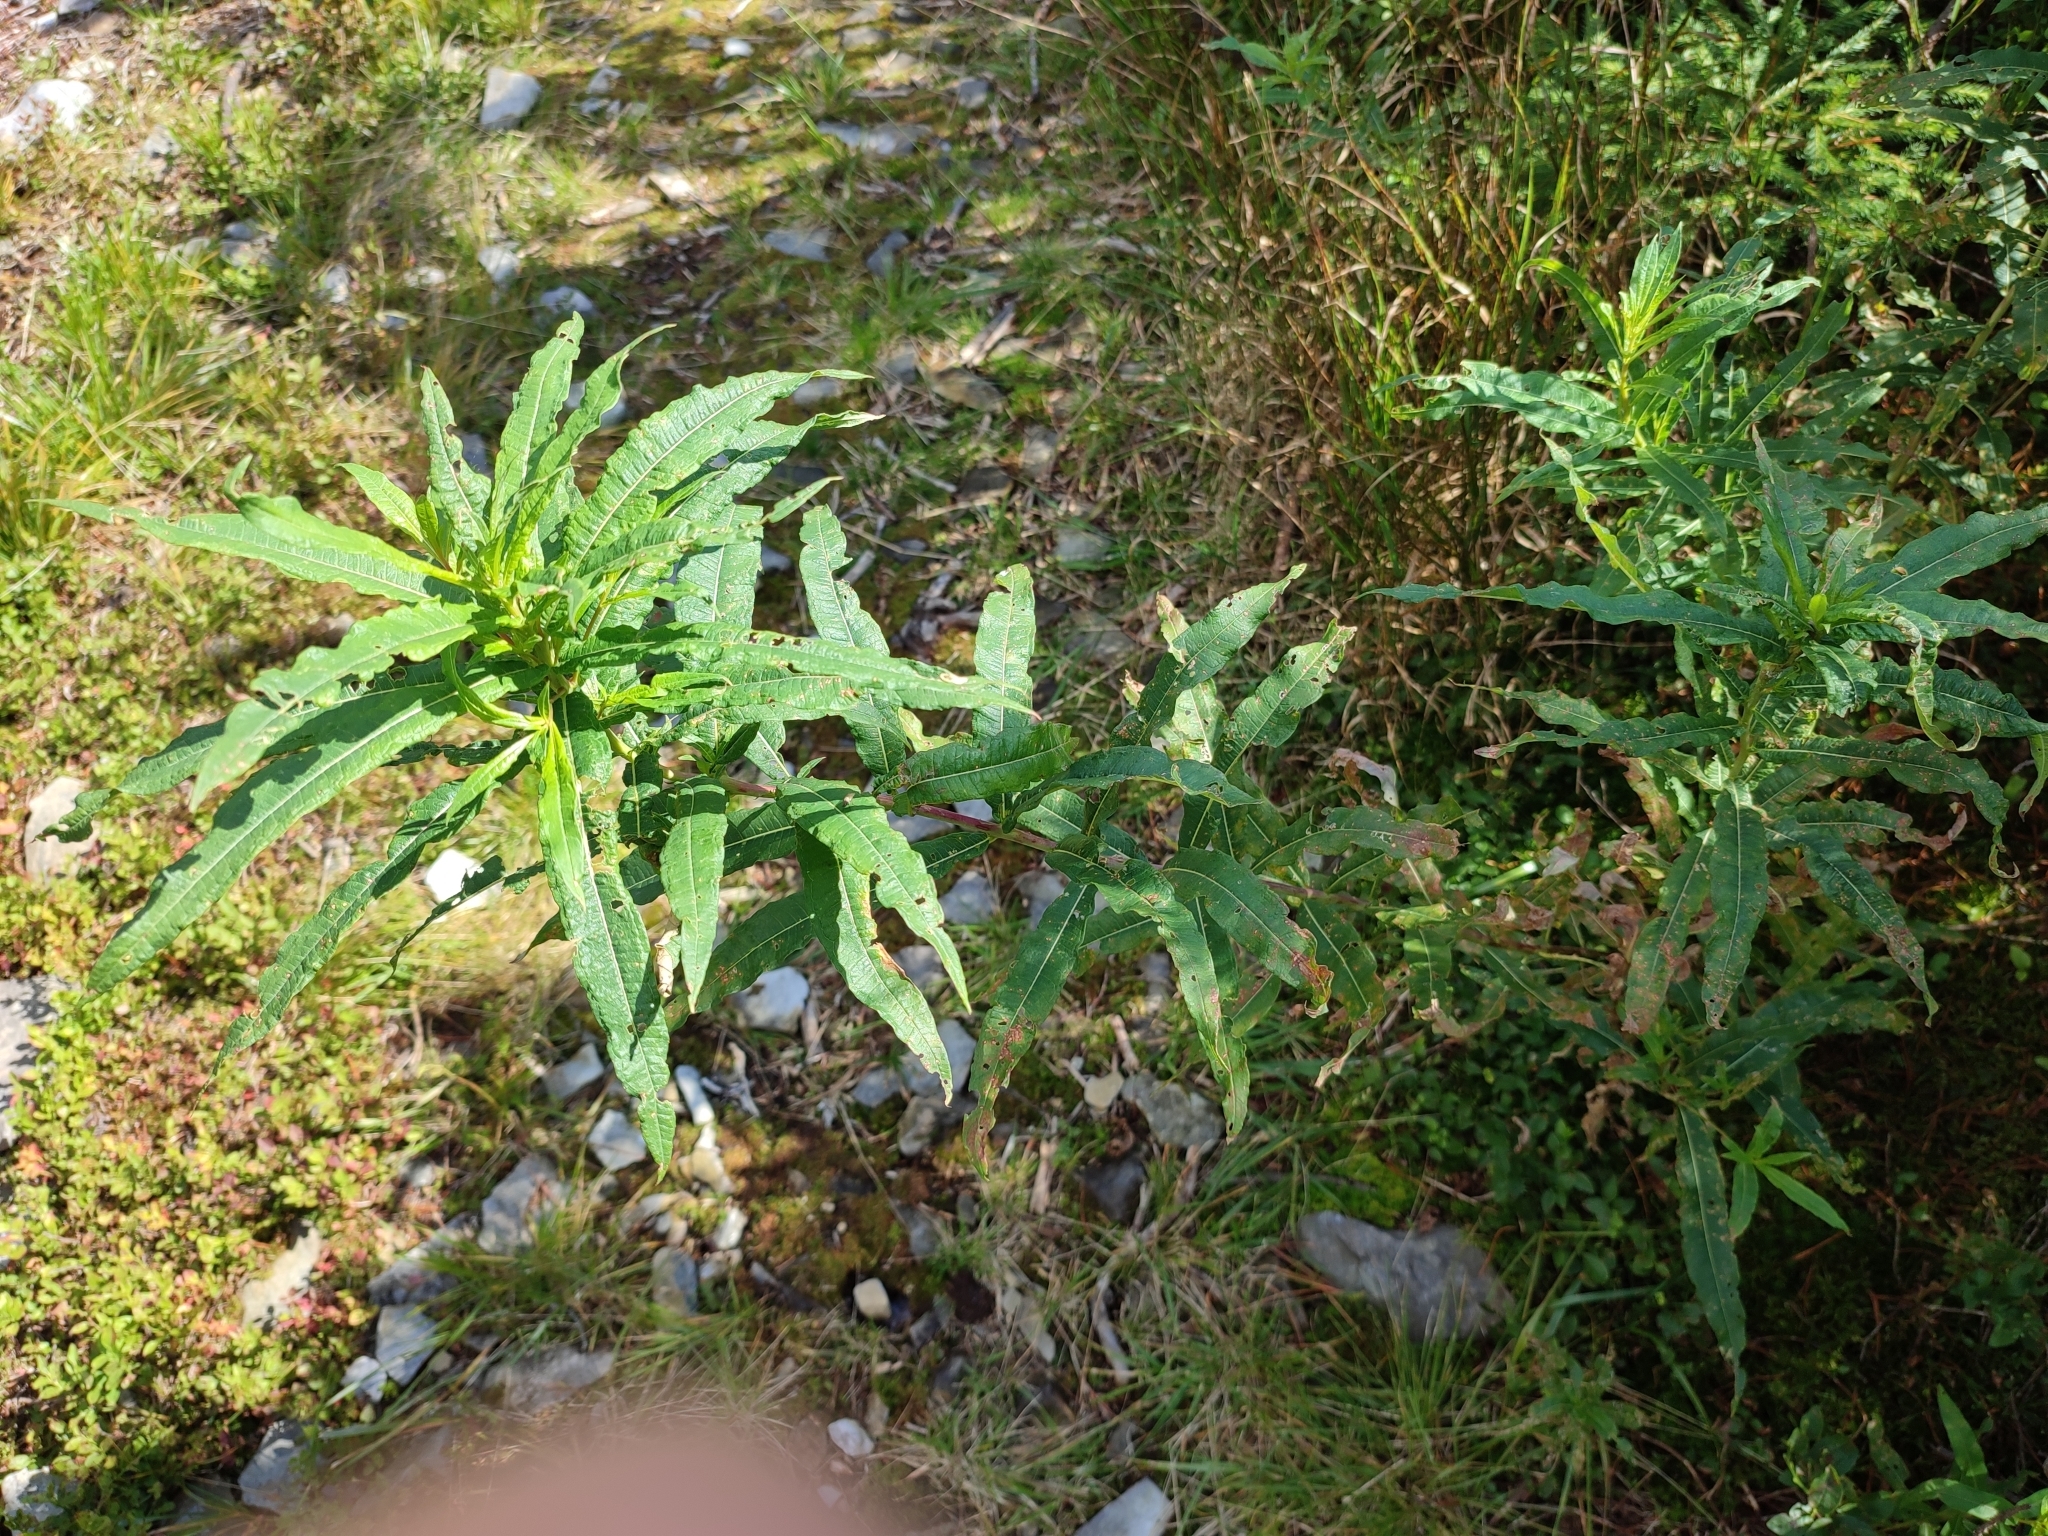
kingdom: Plantae
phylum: Tracheophyta
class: Magnoliopsida
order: Myrtales
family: Onagraceae
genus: Chamaenerion
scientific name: Chamaenerion angustifolium
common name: Fireweed
